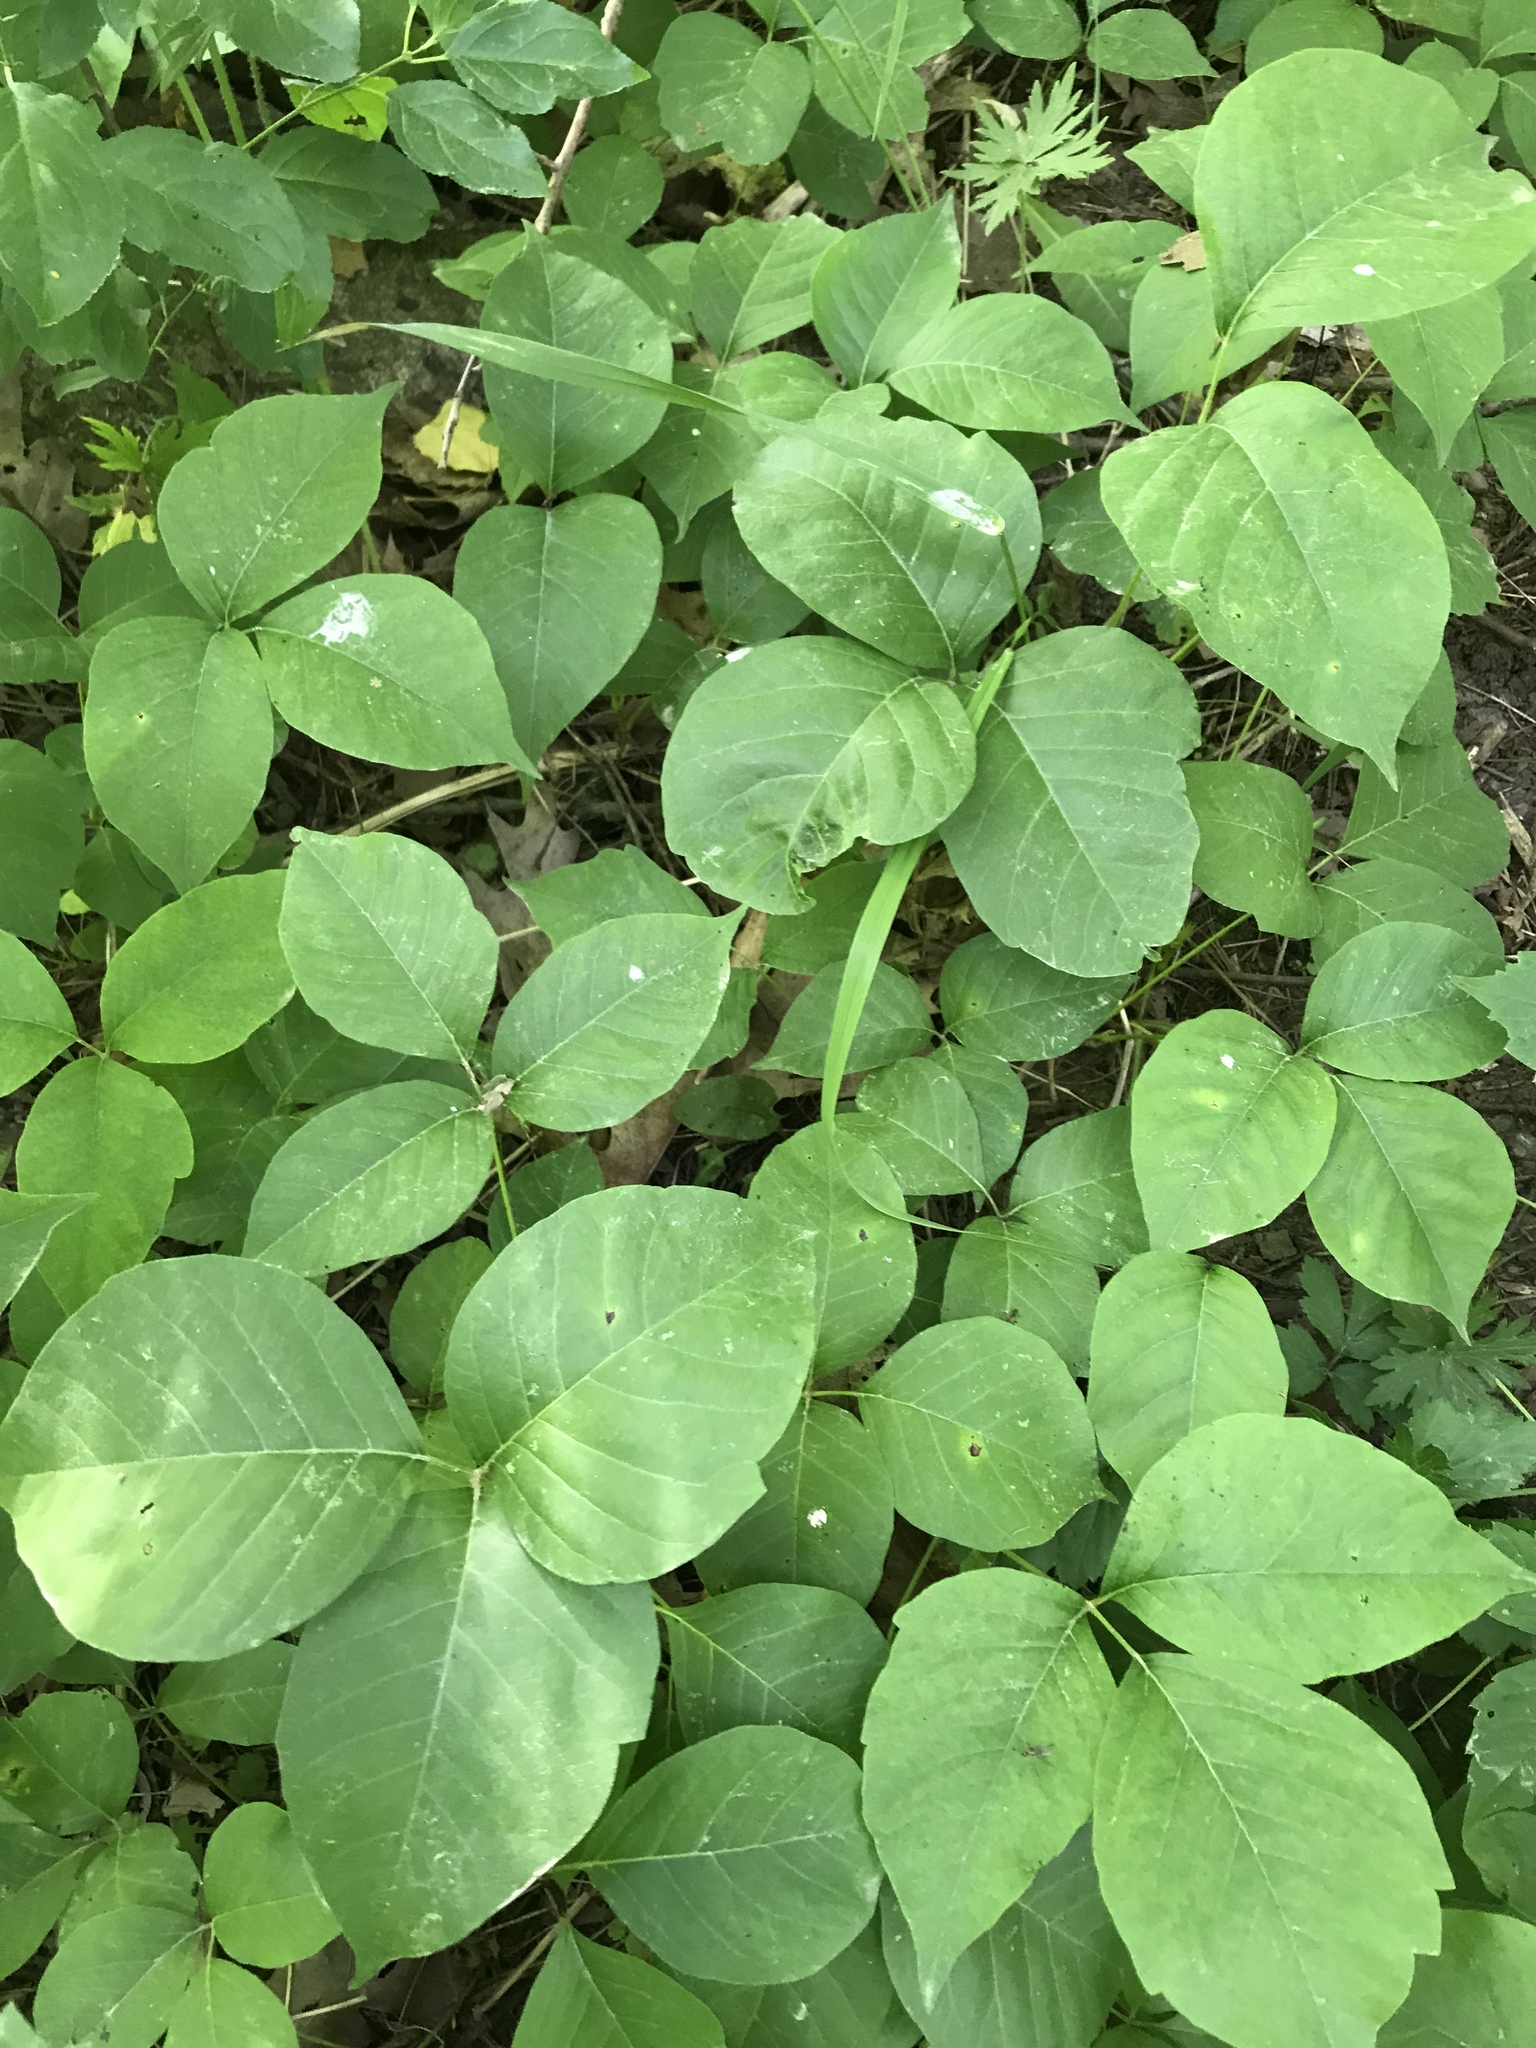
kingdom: Plantae
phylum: Tracheophyta
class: Magnoliopsida
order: Sapindales
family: Anacardiaceae
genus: Toxicodendron
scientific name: Toxicodendron rydbergii
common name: Rydberg's poison-ivy
